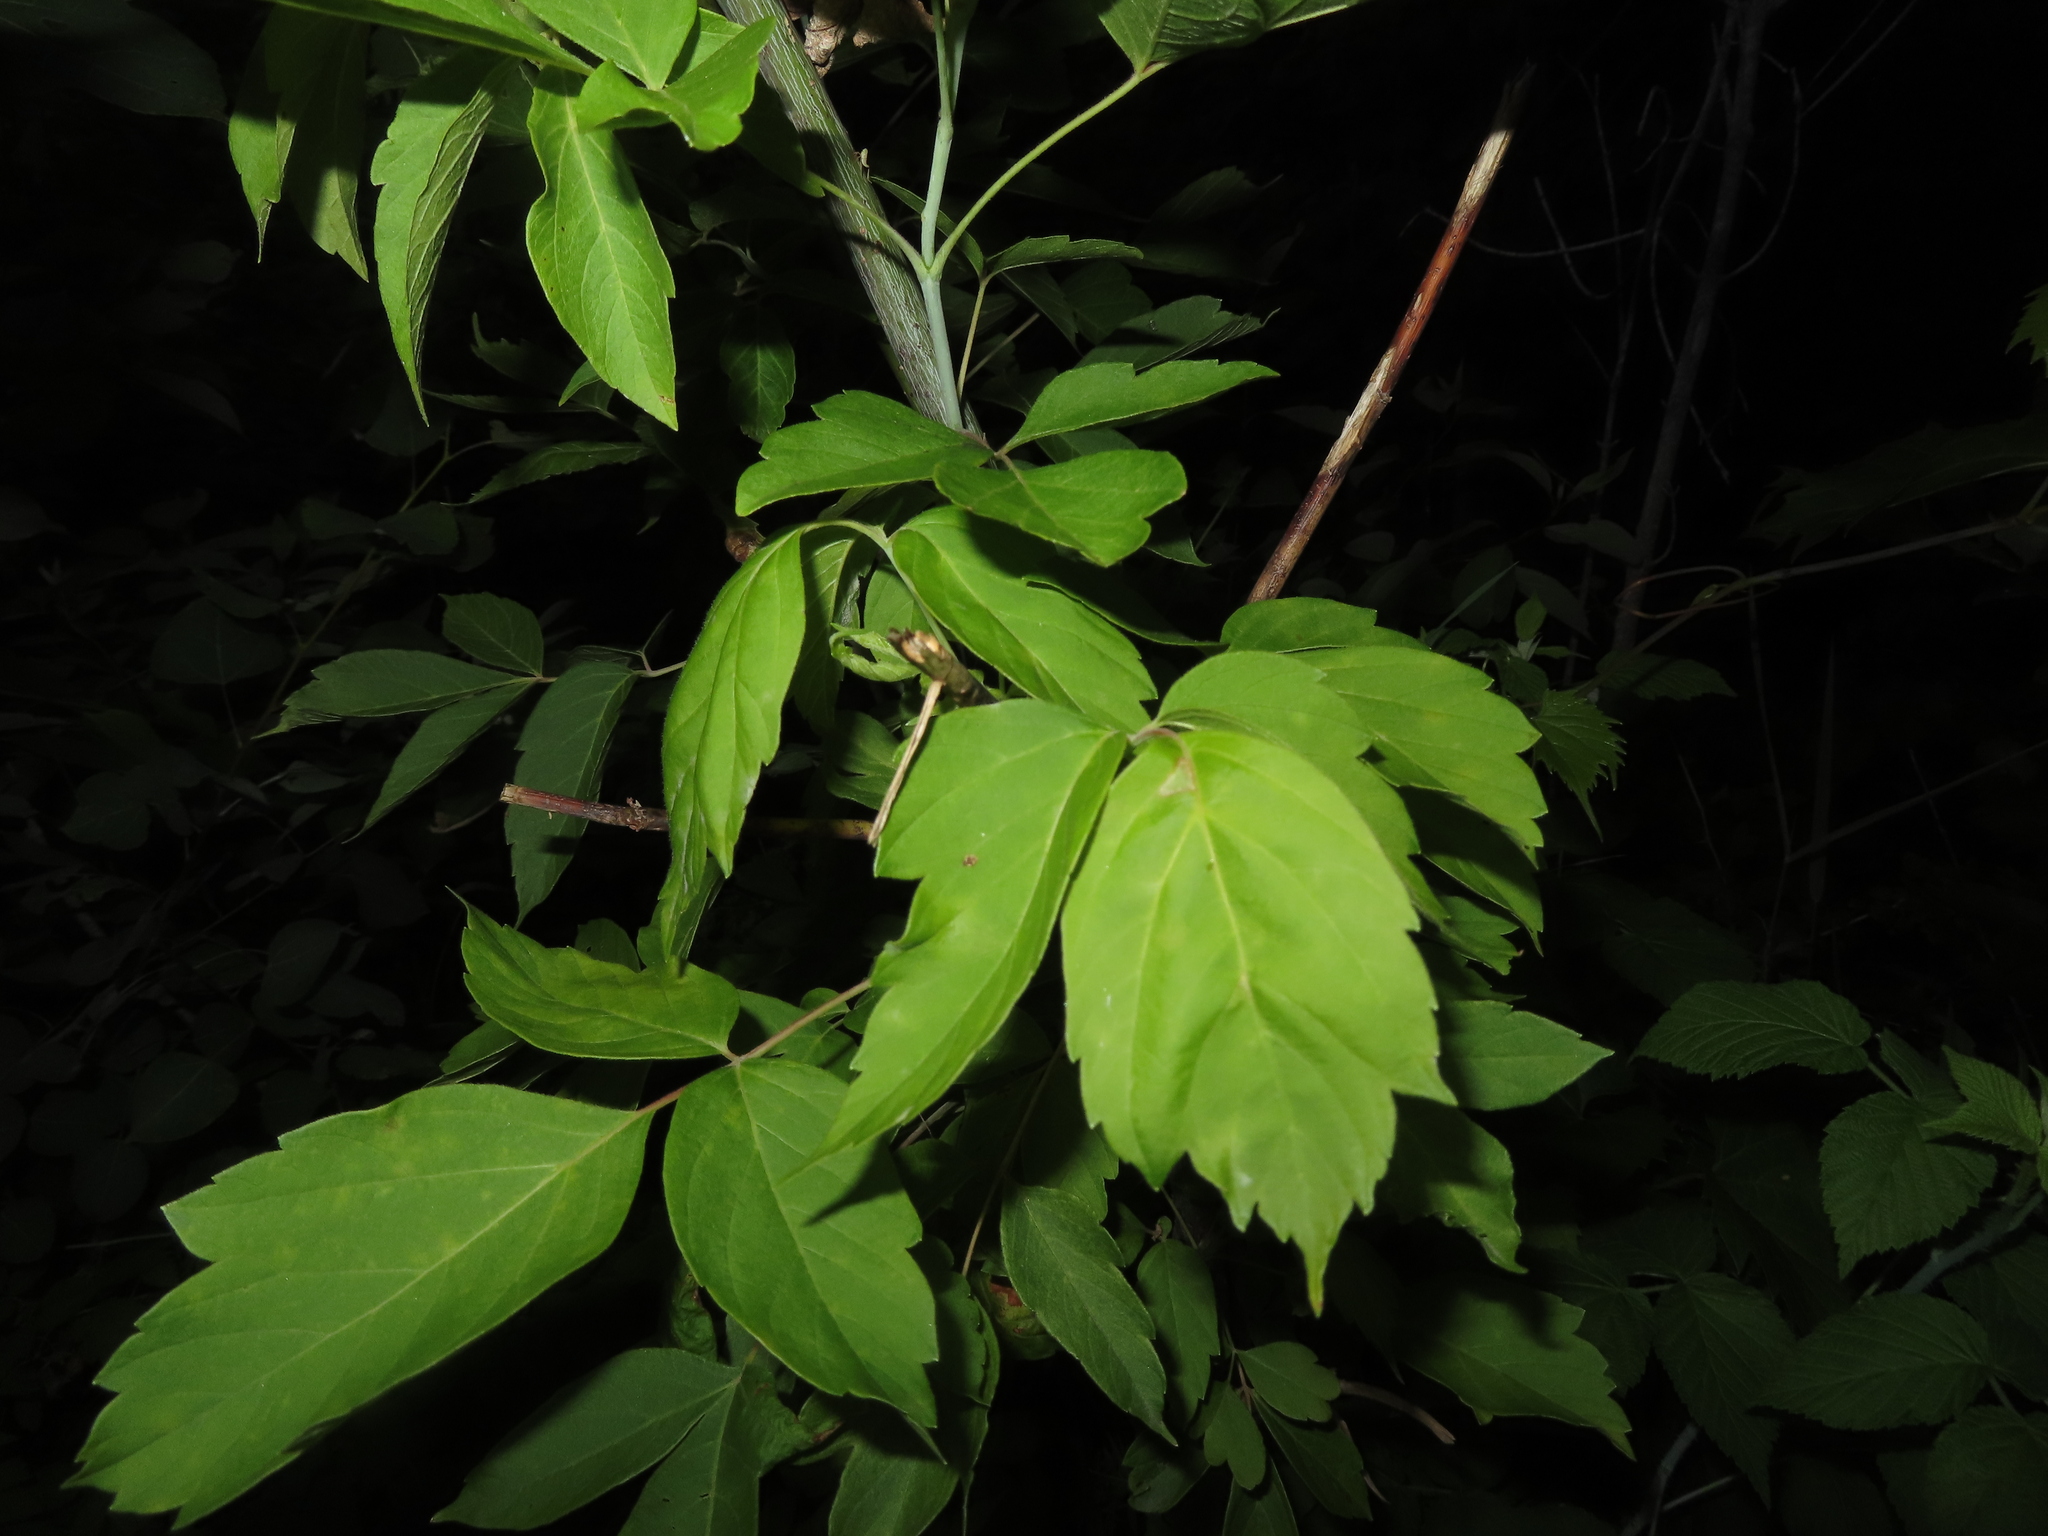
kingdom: Plantae
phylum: Tracheophyta
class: Magnoliopsida
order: Sapindales
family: Sapindaceae
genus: Acer
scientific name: Acer negundo
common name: Ashleaf maple
